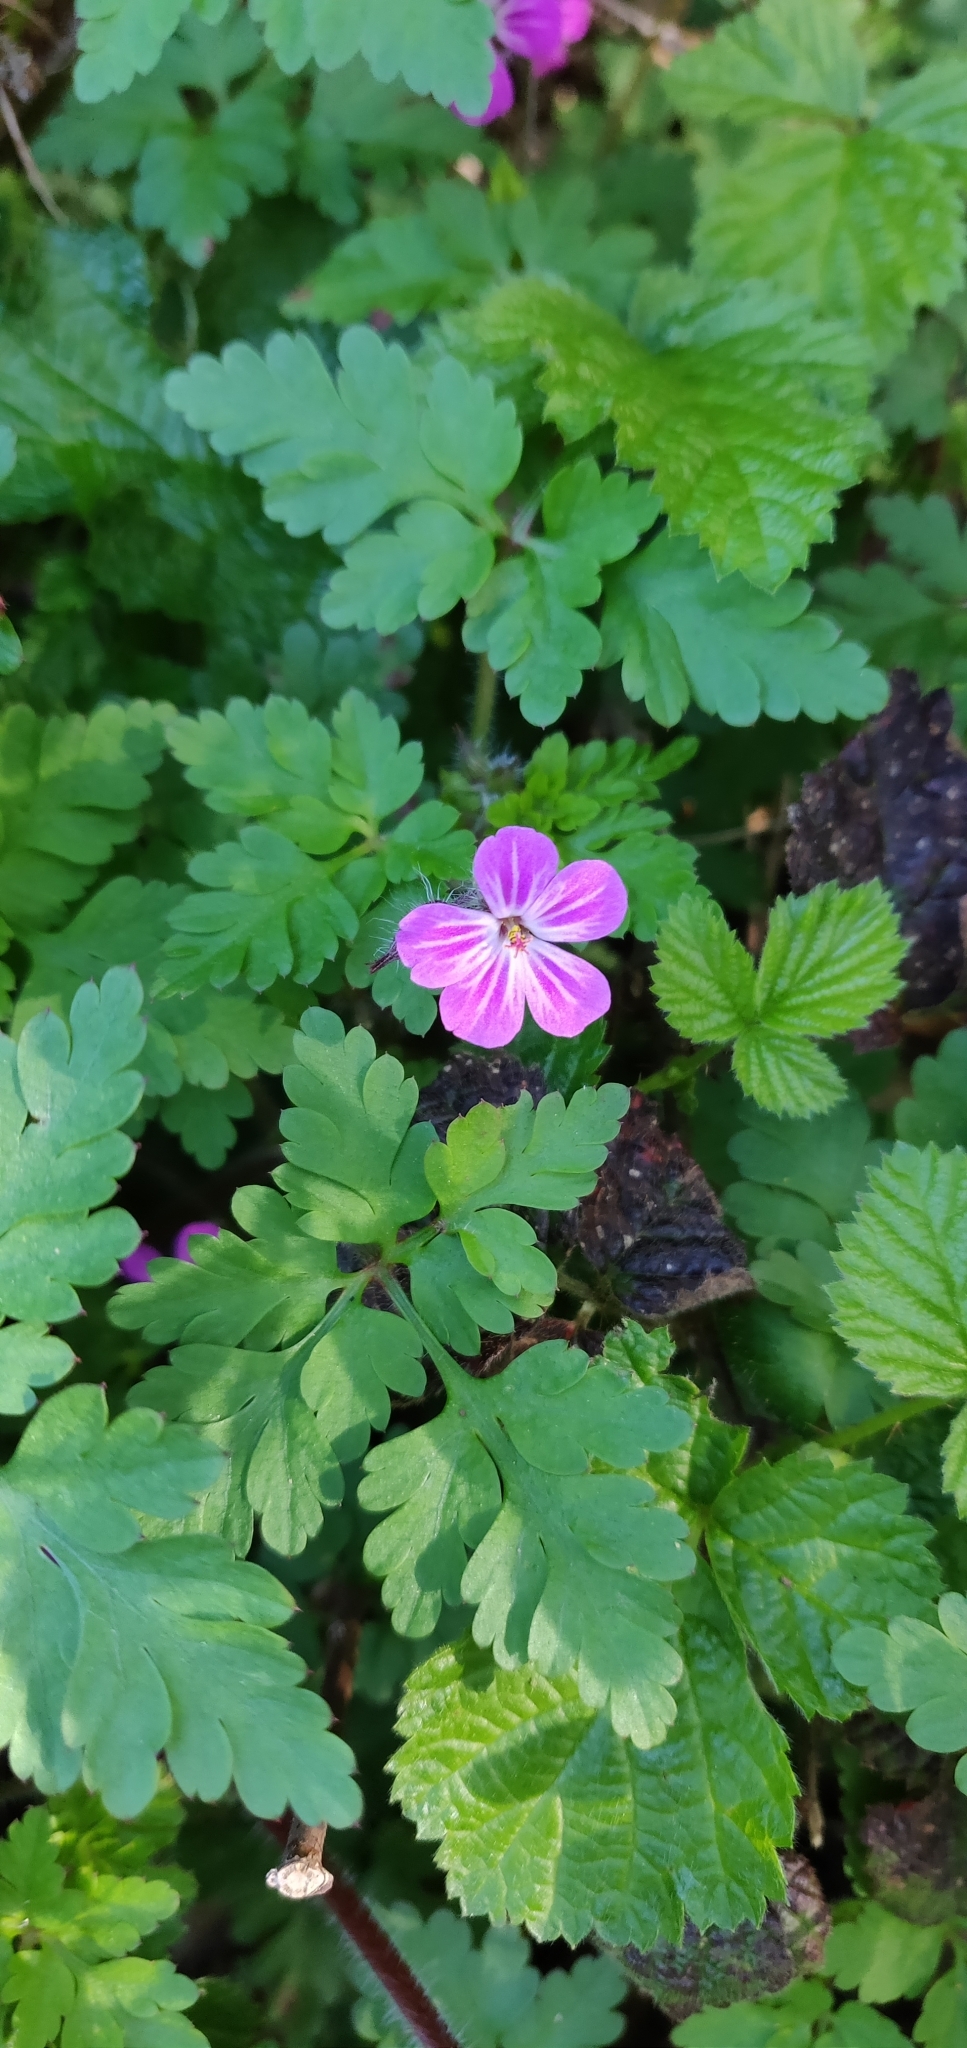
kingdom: Plantae
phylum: Tracheophyta
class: Magnoliopsida
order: Geraniales
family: Geraniaceae
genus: Geranium
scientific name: Geranium robertianum
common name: Herb-robert
